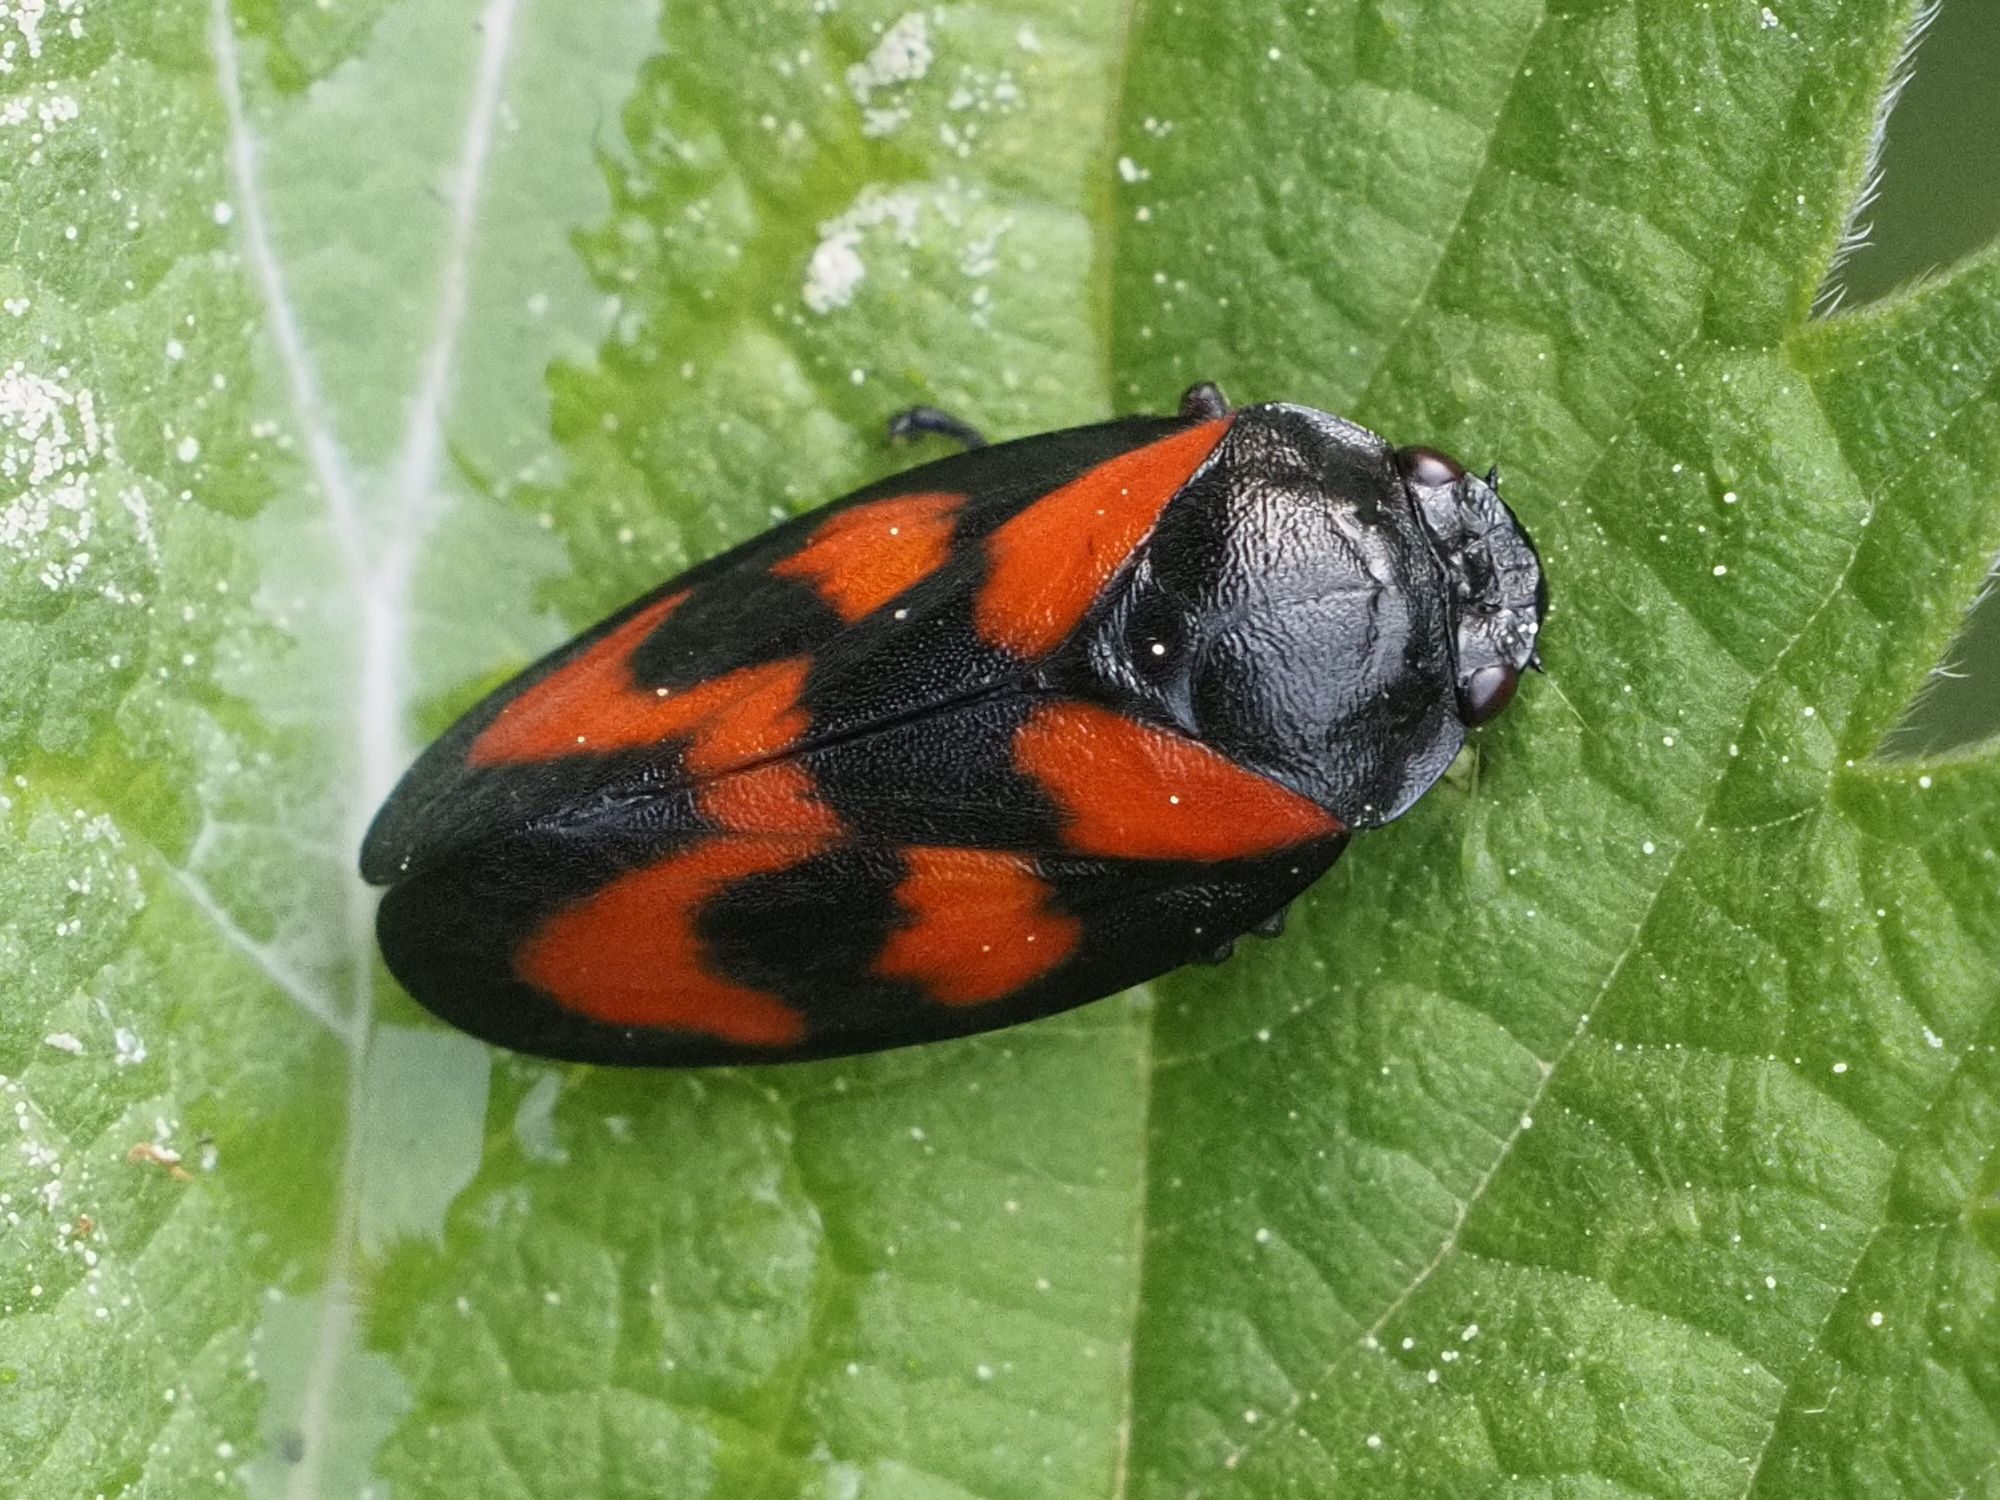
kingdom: Animalia
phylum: Arthropoda
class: Insecta
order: Hemiptera
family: Cercopidae
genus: Cercopis
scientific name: Cercopis vulnerata
